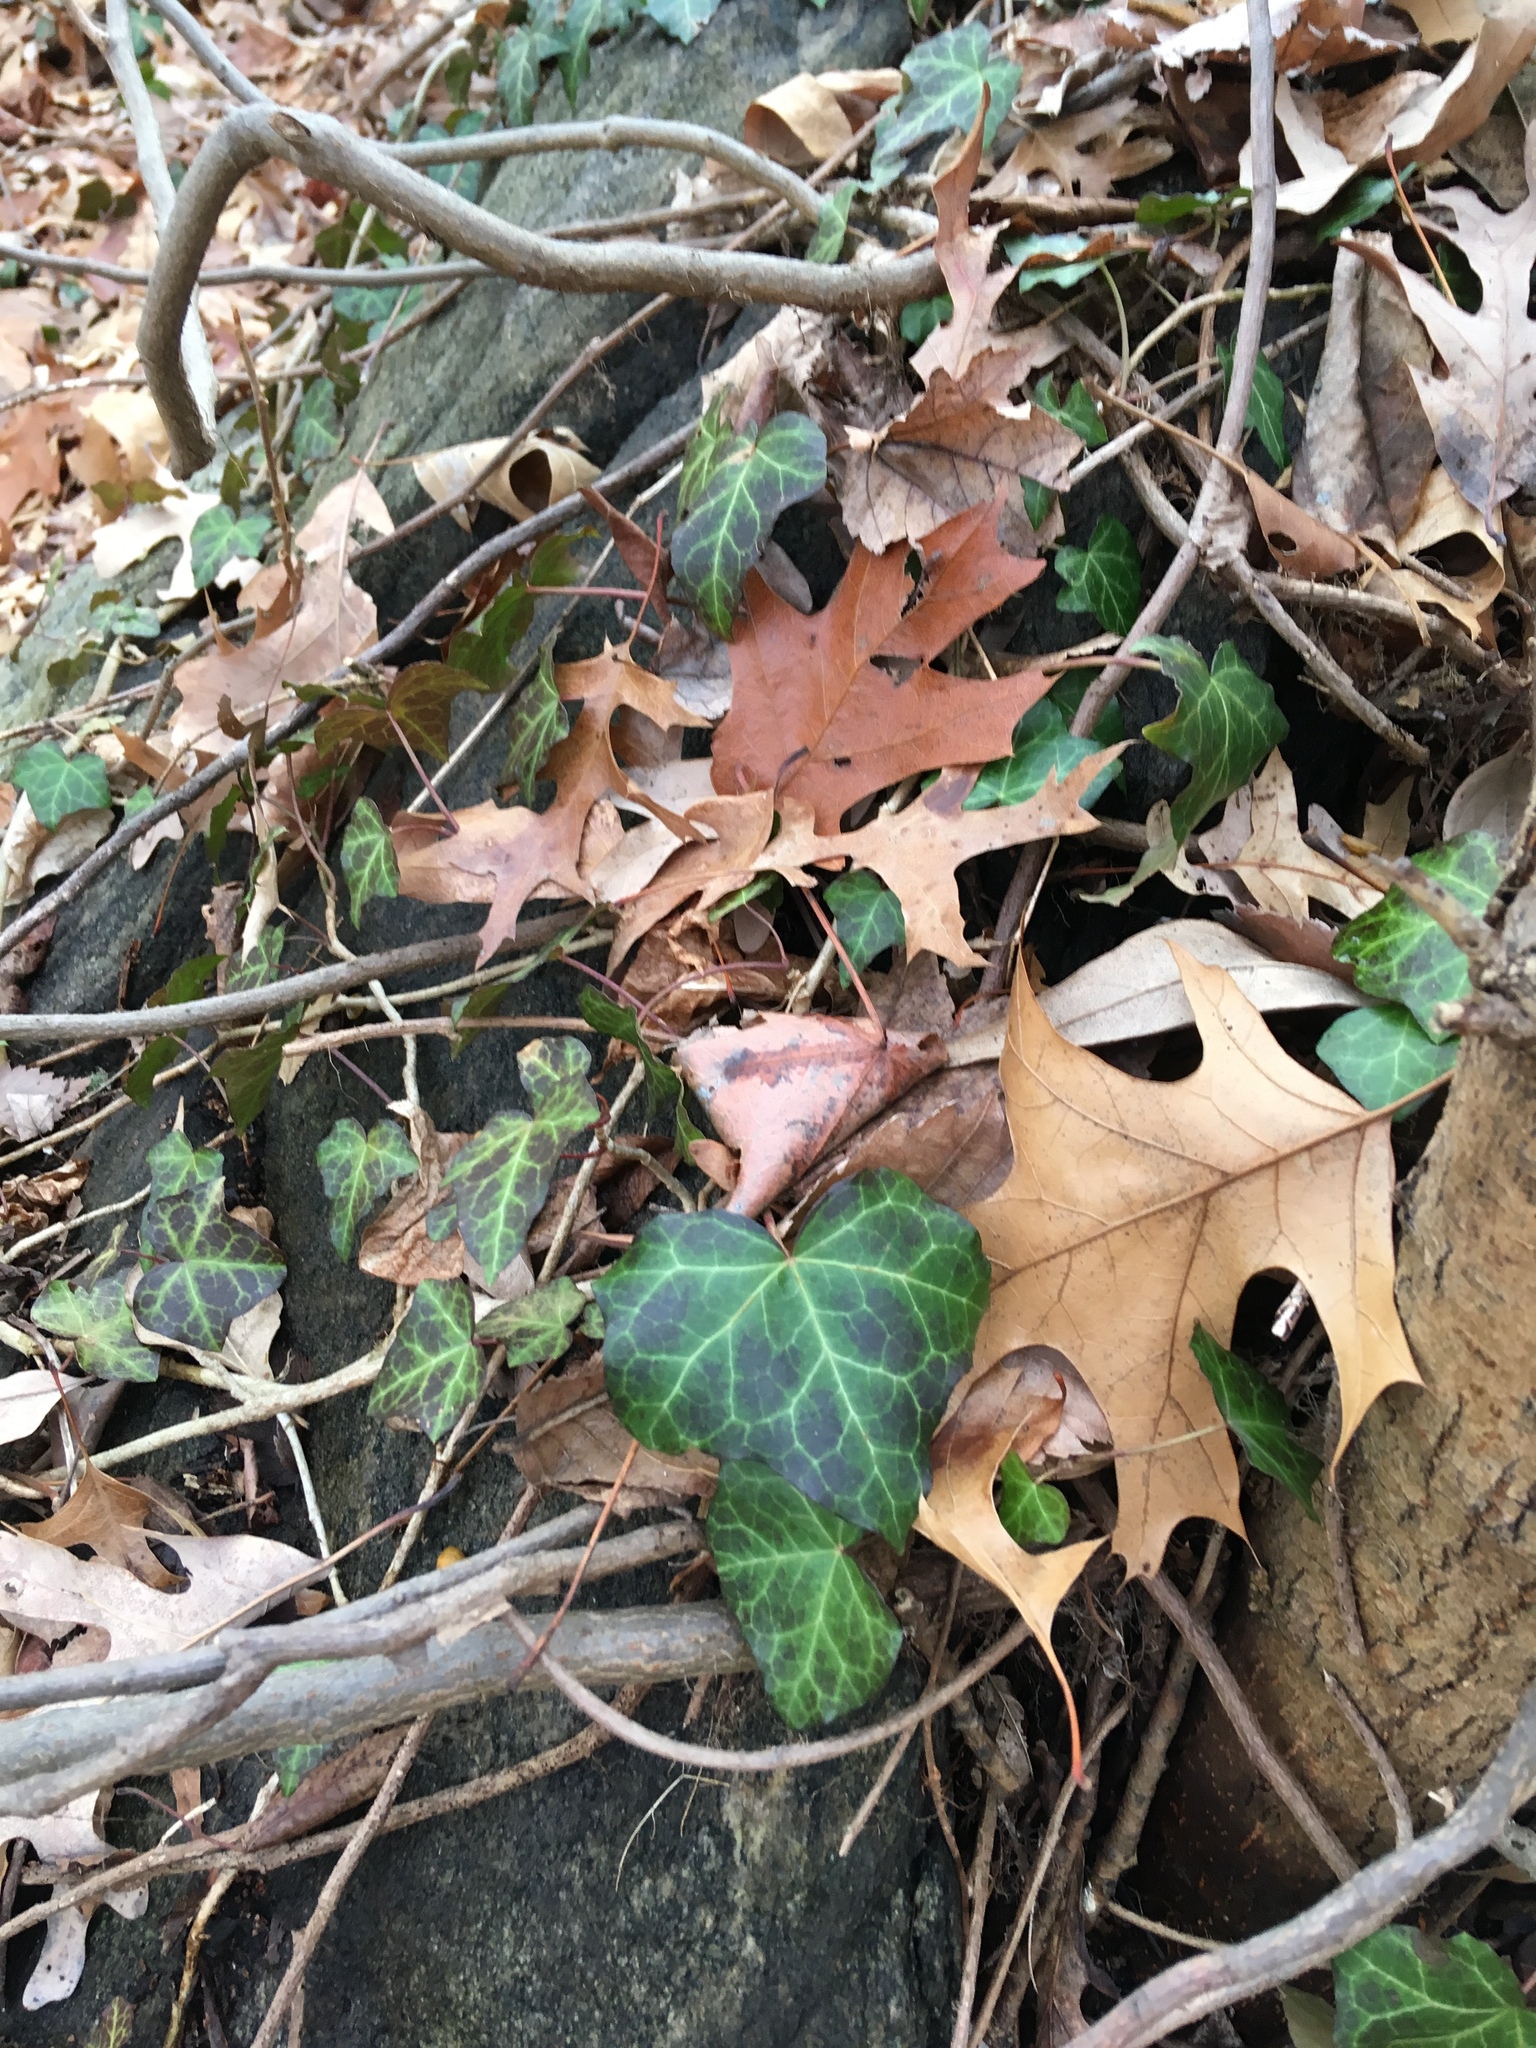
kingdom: Plantae
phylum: Tracheophyta
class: Magnoliopsida
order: Apiales
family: Araliaceae
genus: Hedera
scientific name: Hedera helix
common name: Ivy
